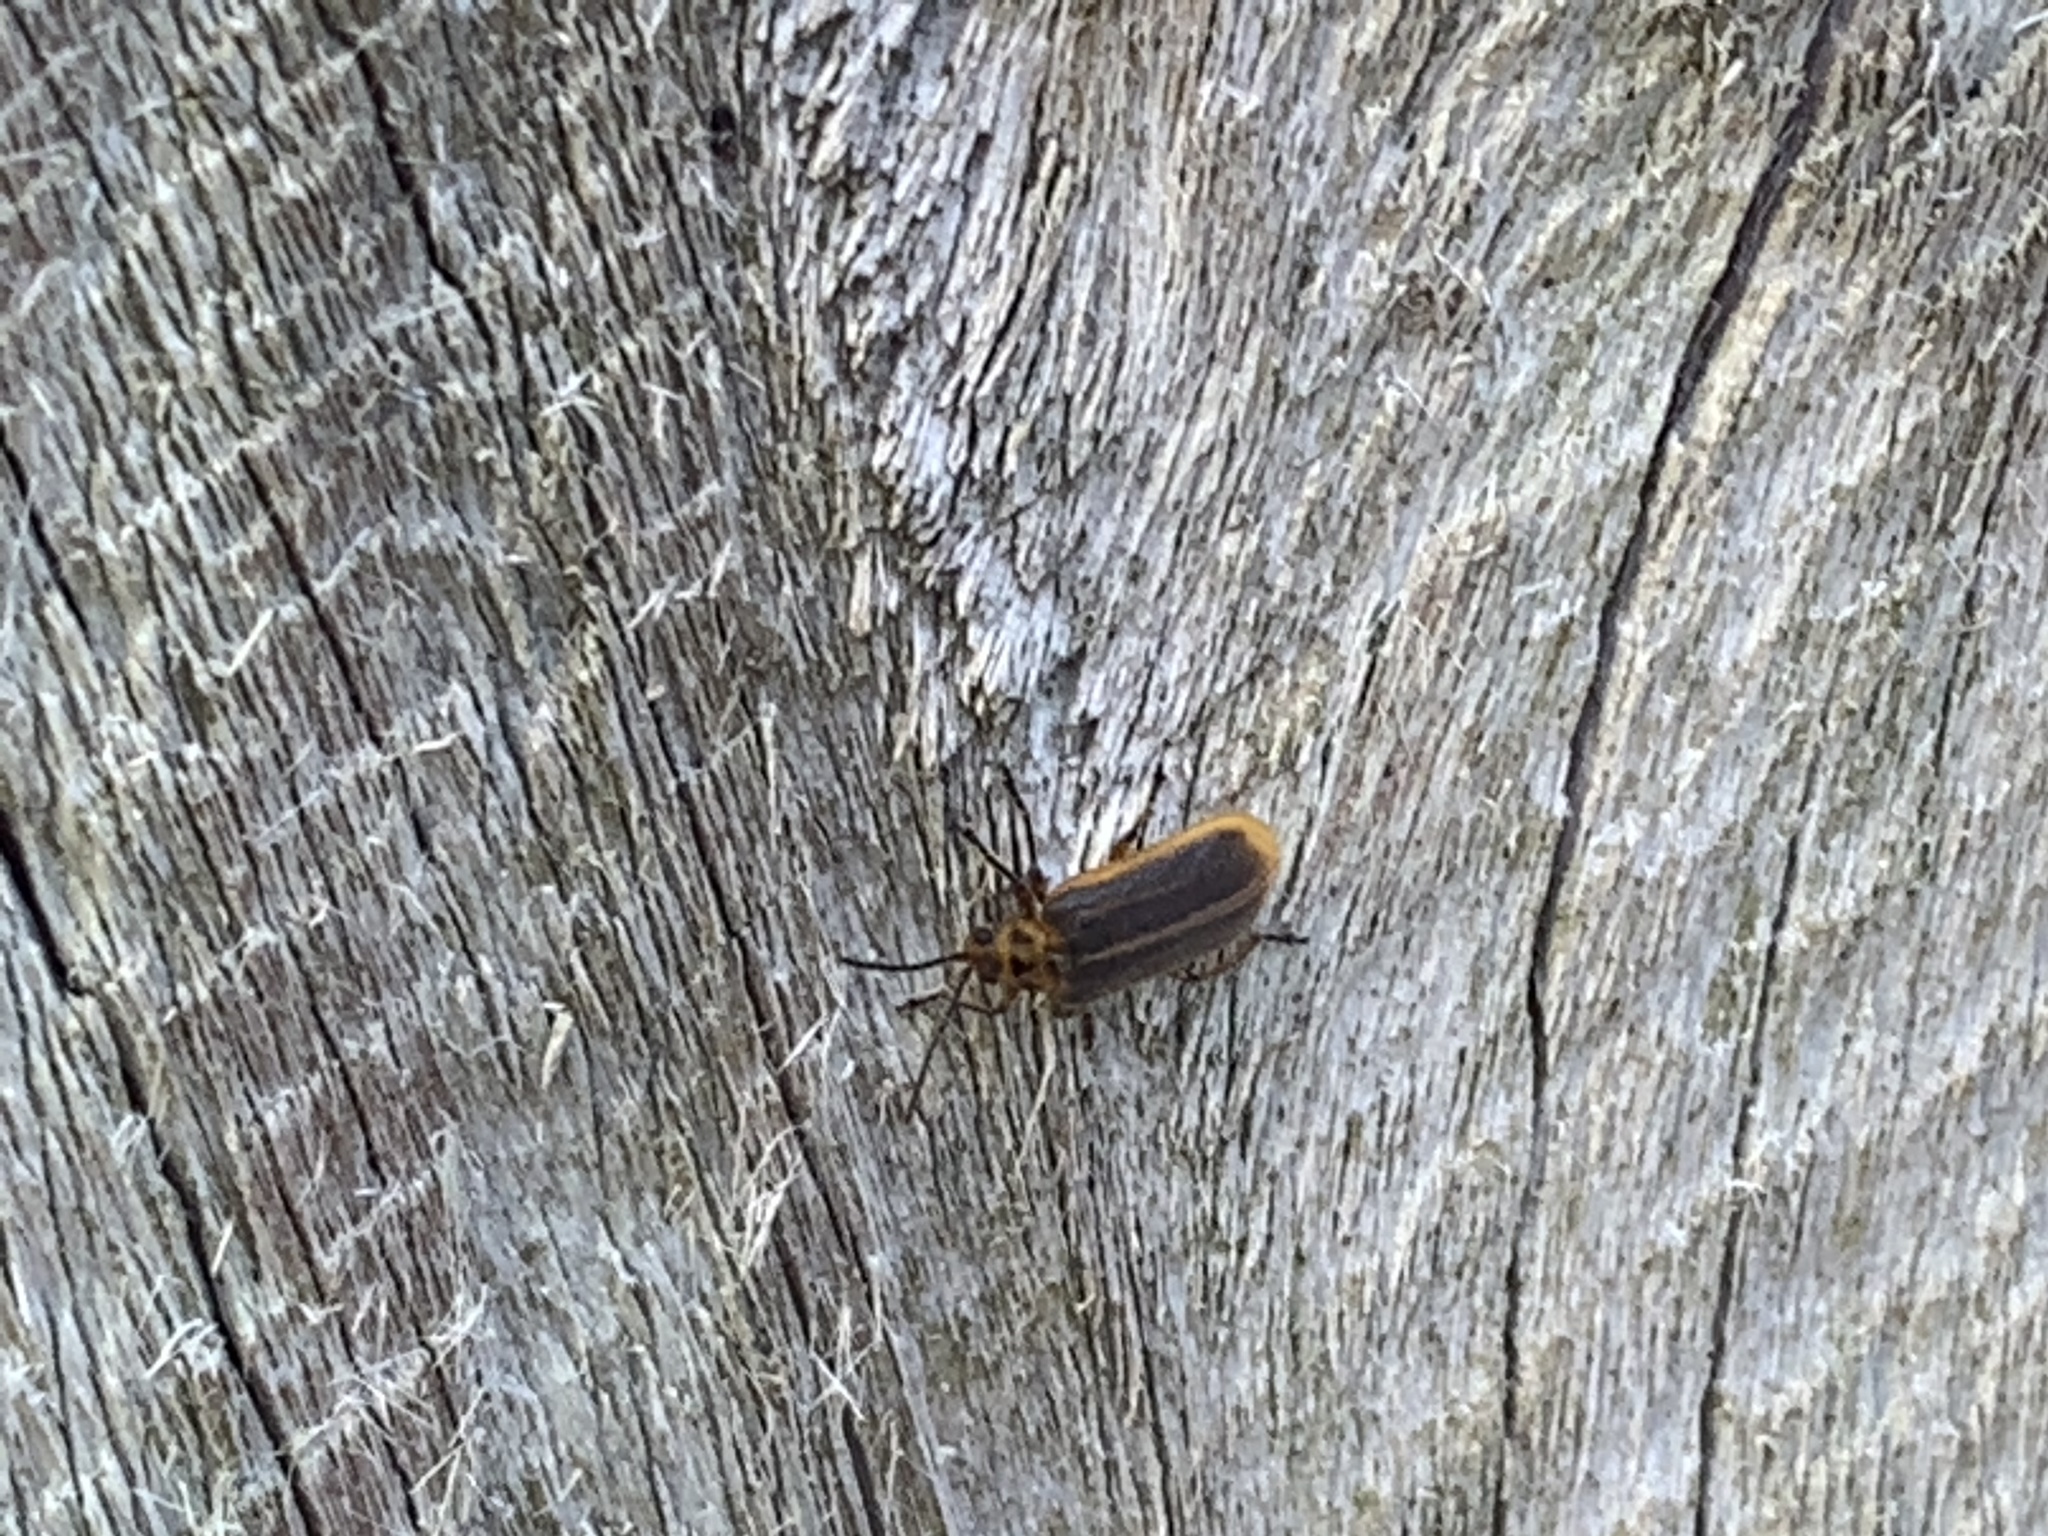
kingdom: Animalia
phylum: Arthropoda
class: Insecta
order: Coleoptera
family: Chrysomelidae
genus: Galerucella
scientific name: Galerucella nymphaeae
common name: Leaf beetle
